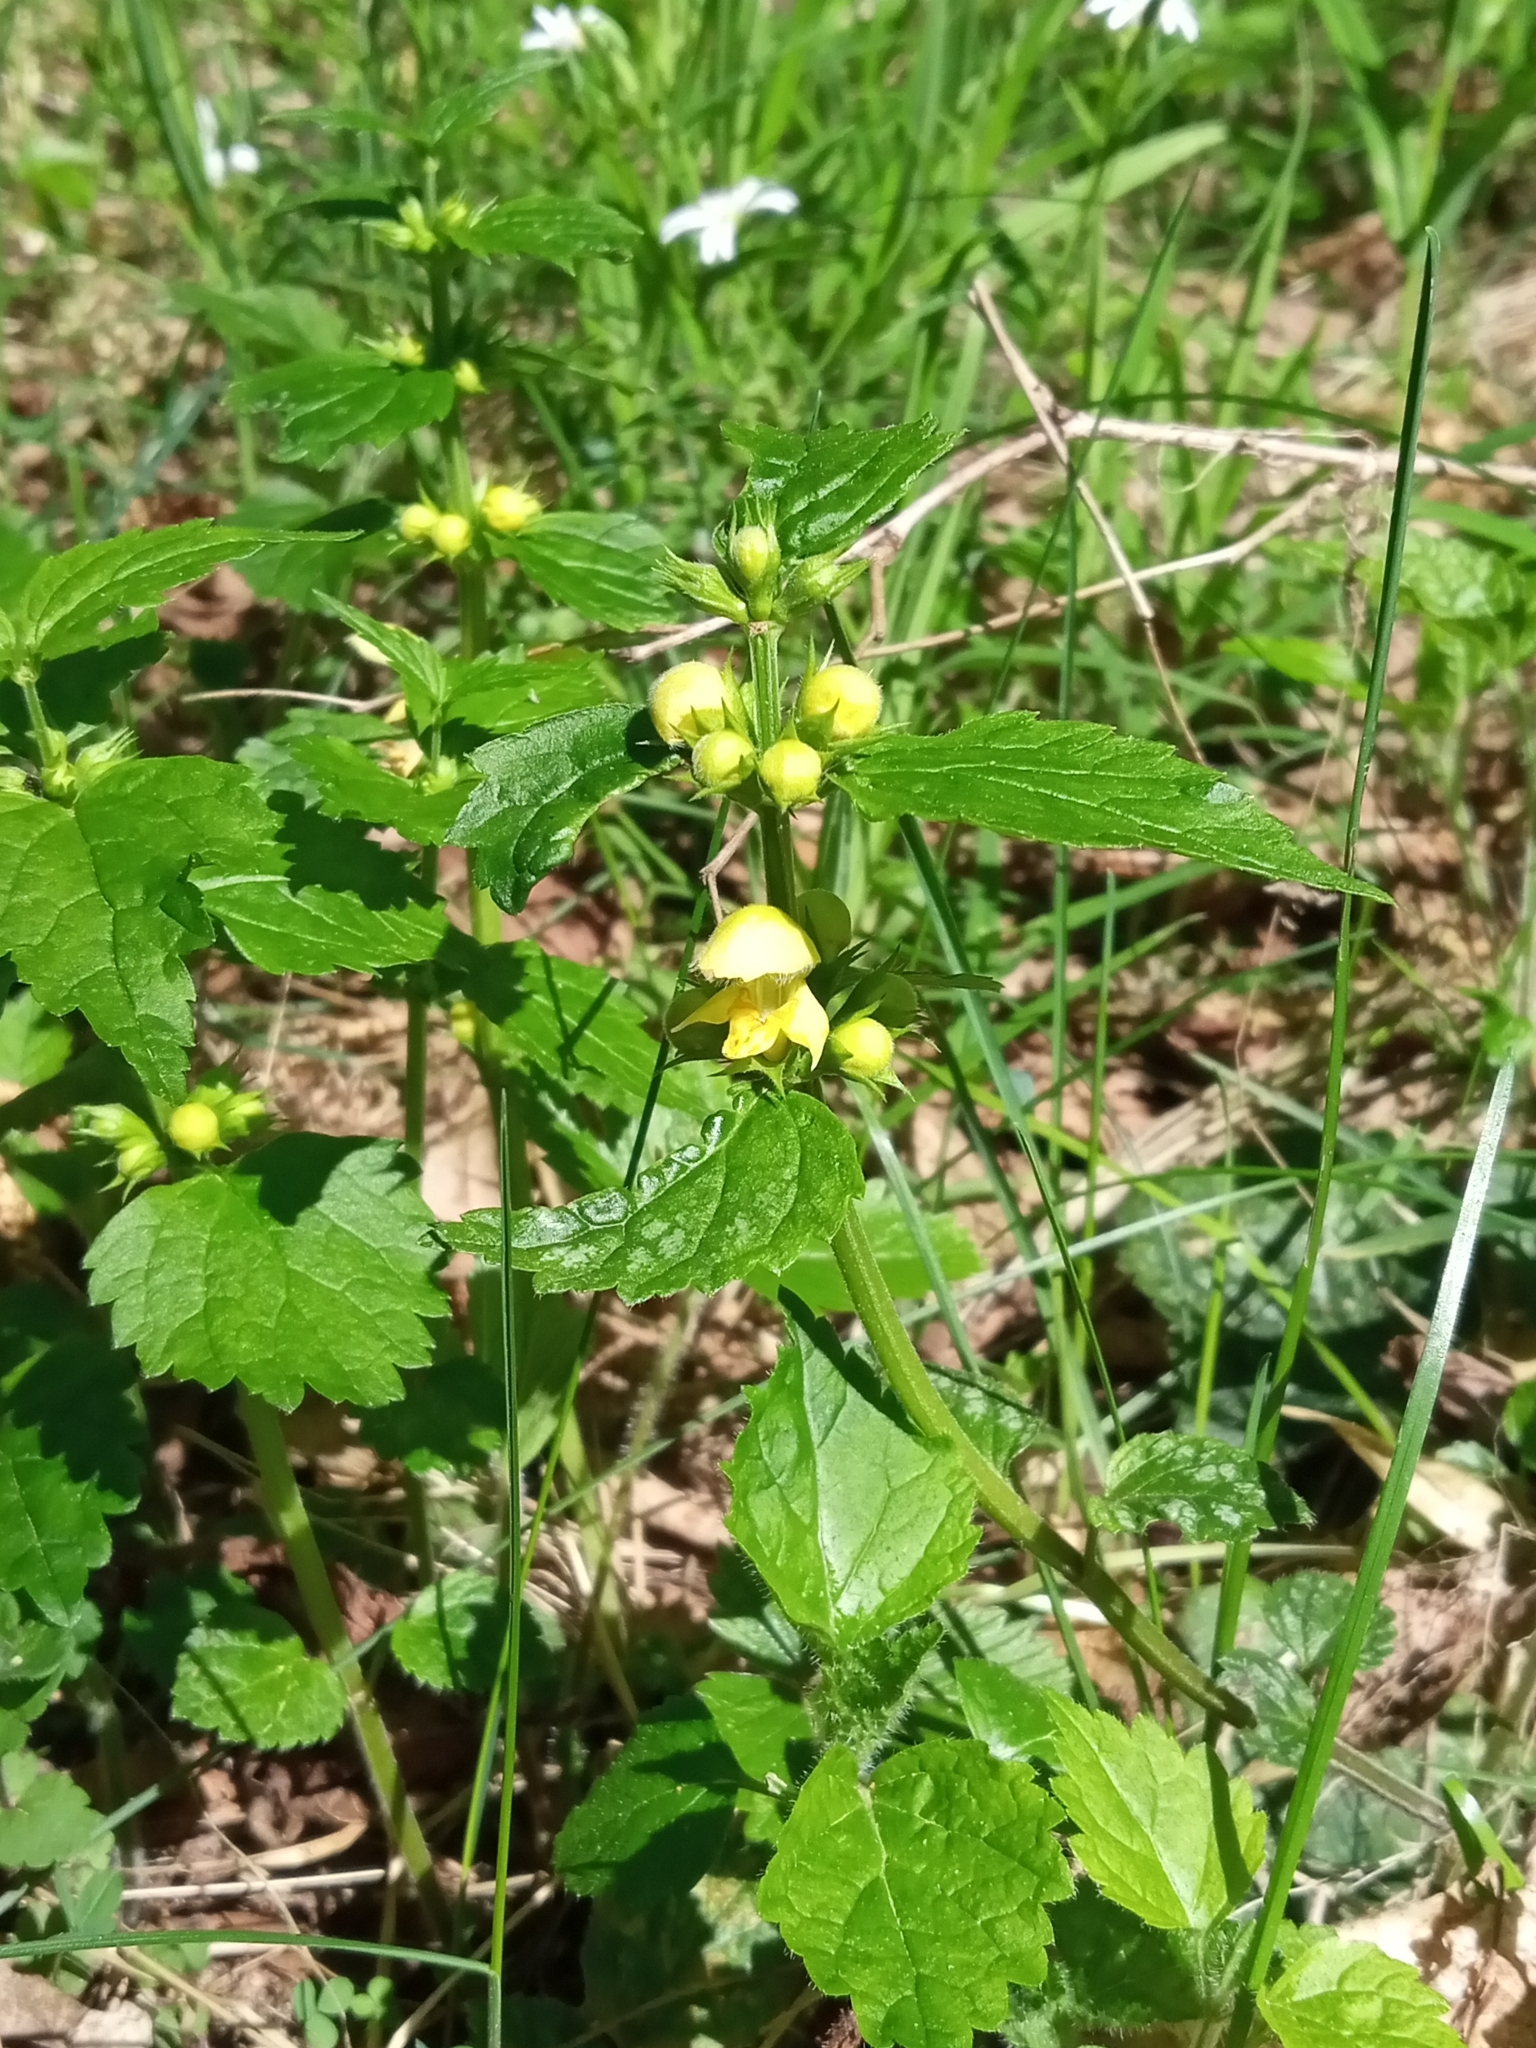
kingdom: Plantae
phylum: Tracheophyta
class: Magnoliopsida
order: Lamiales
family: Lamiaceae
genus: Lamium
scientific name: Lamium galeobdolon
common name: Yellow archangel
